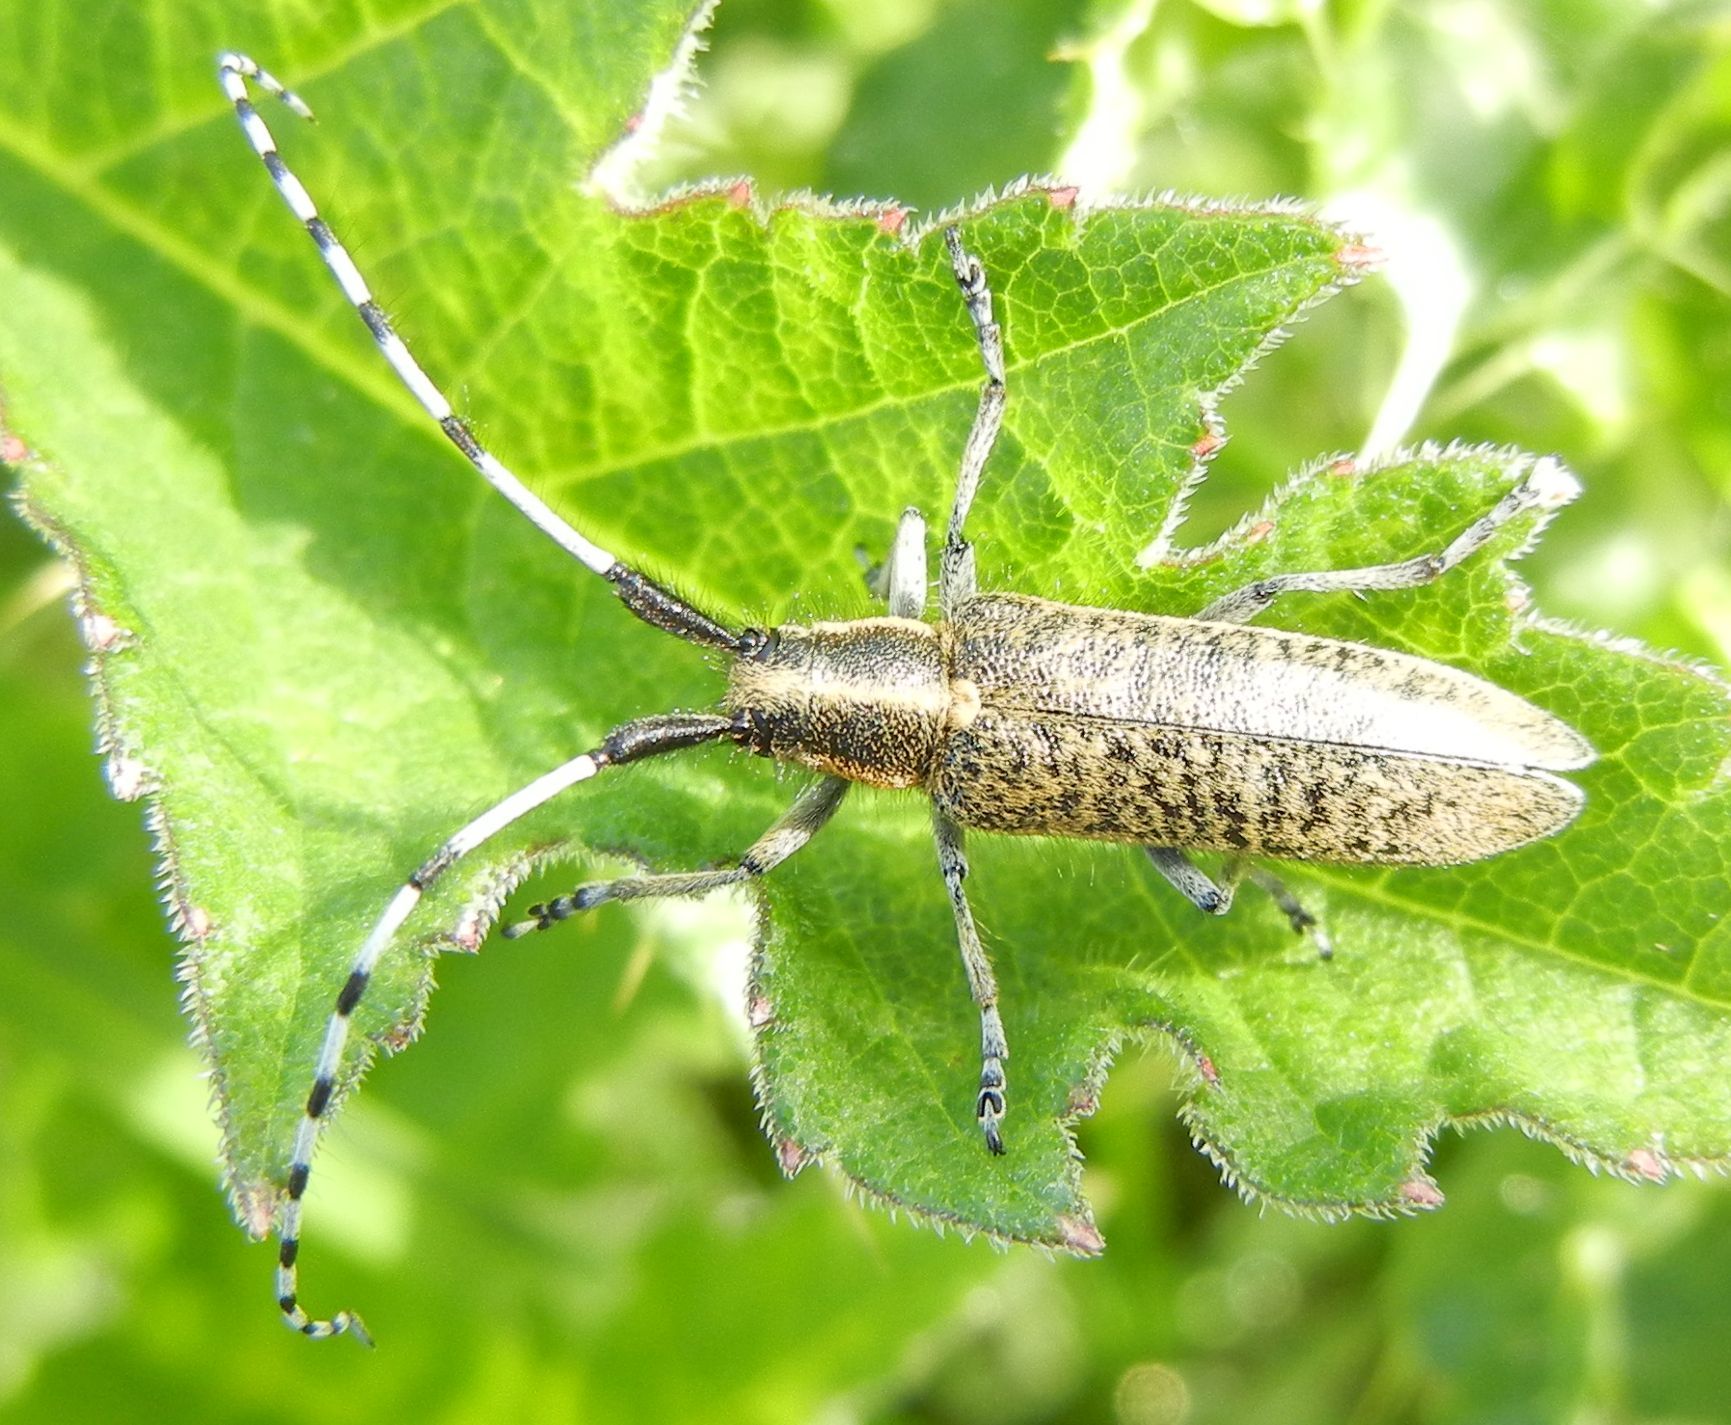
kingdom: Animalia
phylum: Arthropoda
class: Insecta
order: Coleoptera
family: Cerambycidae
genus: Agapanthia
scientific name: Agapanthia villosoviridescens
